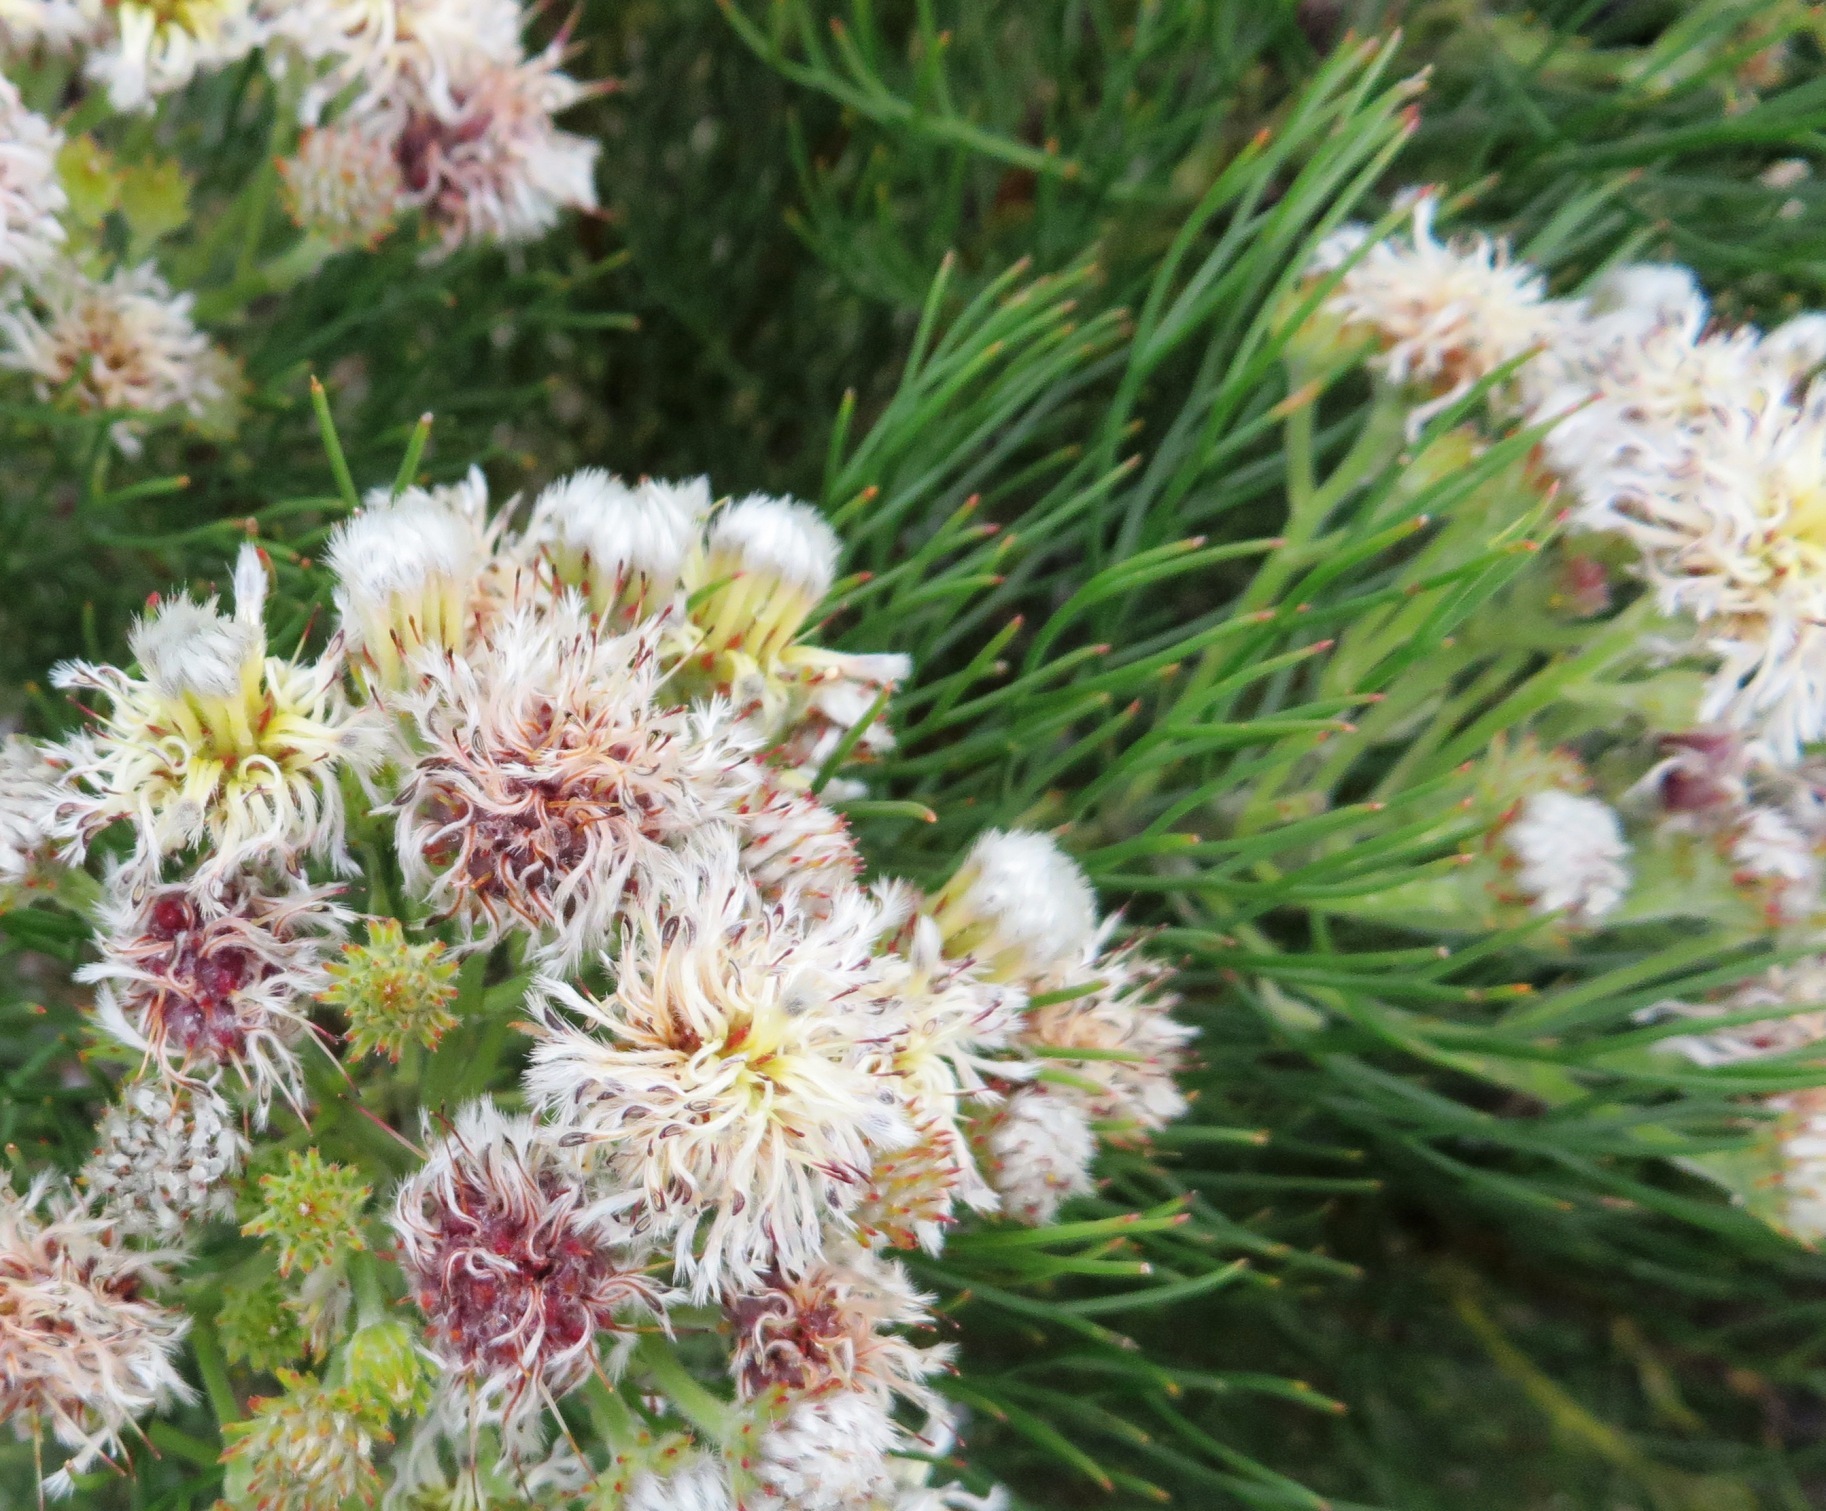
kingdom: Plantae
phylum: Tracheophyta
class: Magnoliopsida
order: Proteales
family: Proteaceae
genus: Serruria
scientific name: Serruria kraussii
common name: Snowball spiderhead
